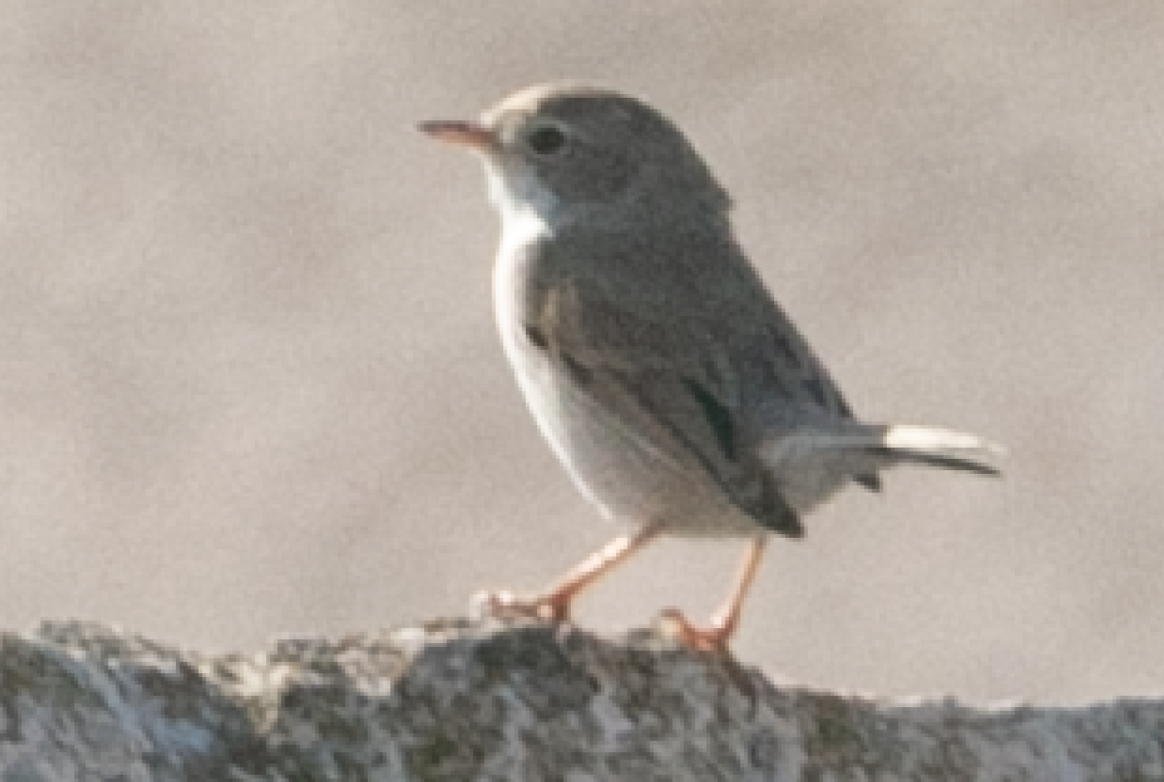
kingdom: Animalia
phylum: Chordata
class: Aves
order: Passeriformes
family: Sylviidae
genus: Curruca
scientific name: Curruca cantillans
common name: Subalpine warbler
